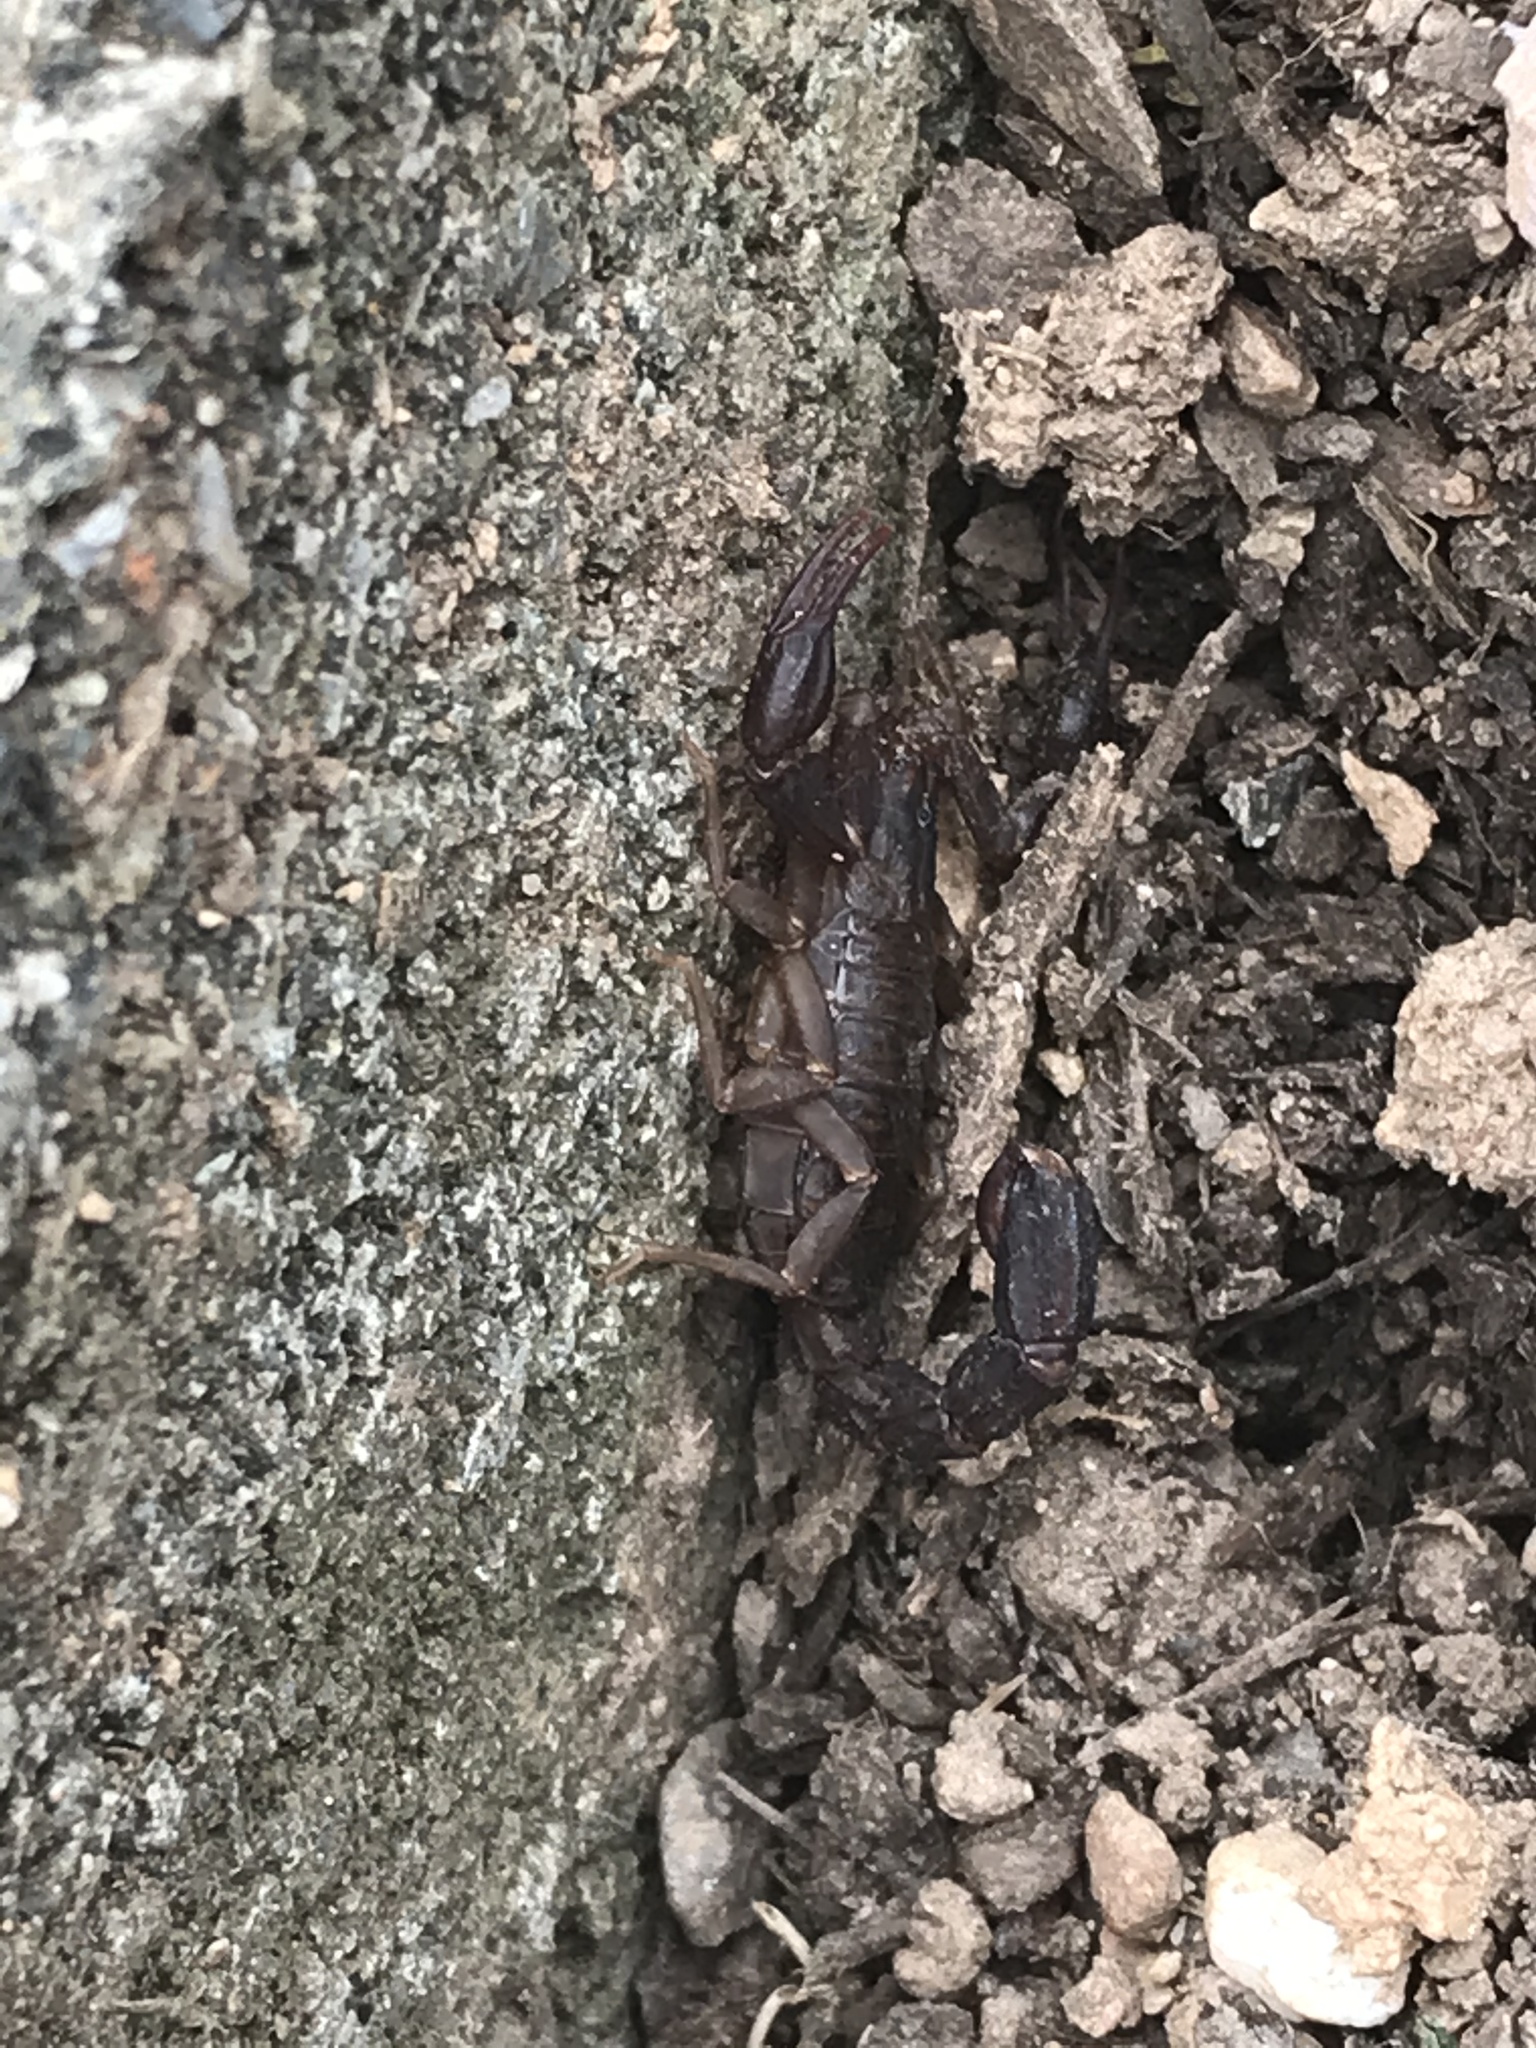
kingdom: Animalia
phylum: Arthropoda
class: Arachnida
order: Scorpiones
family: Vaejovidae
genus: Vaejovis
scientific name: Vaejovis carolinianus
